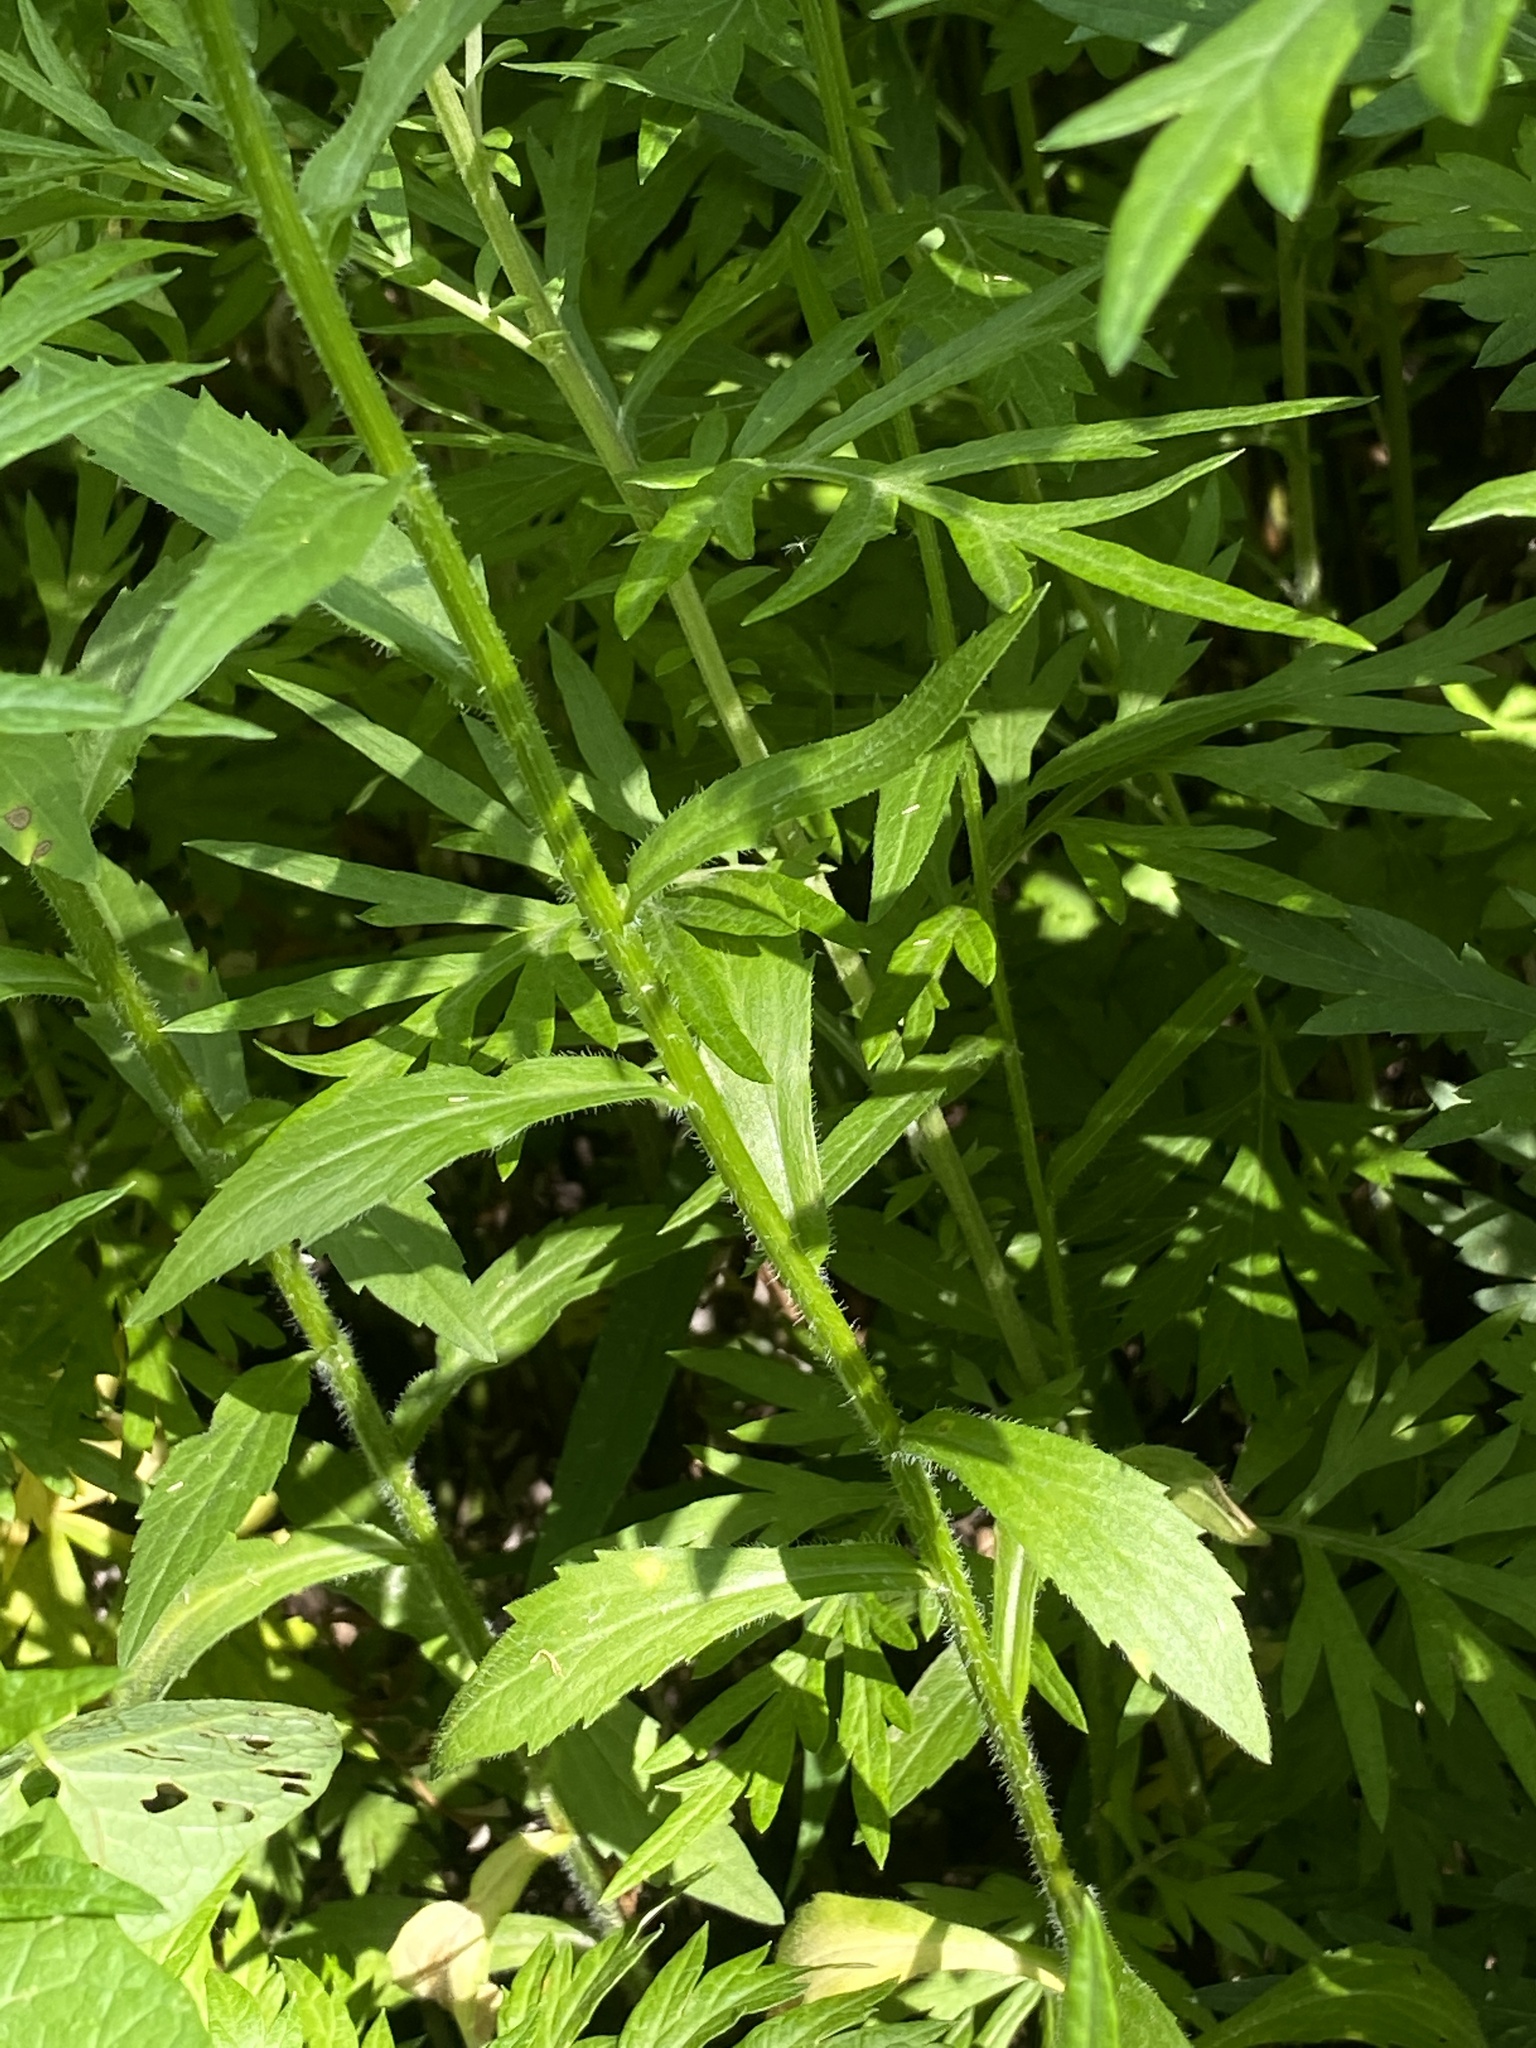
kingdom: Plantae
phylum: Tracheophyta
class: Magnoliopsida
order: Asterales
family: Asteraceae
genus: Erigeron
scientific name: Erigeron annuus
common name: Tall fleabane
